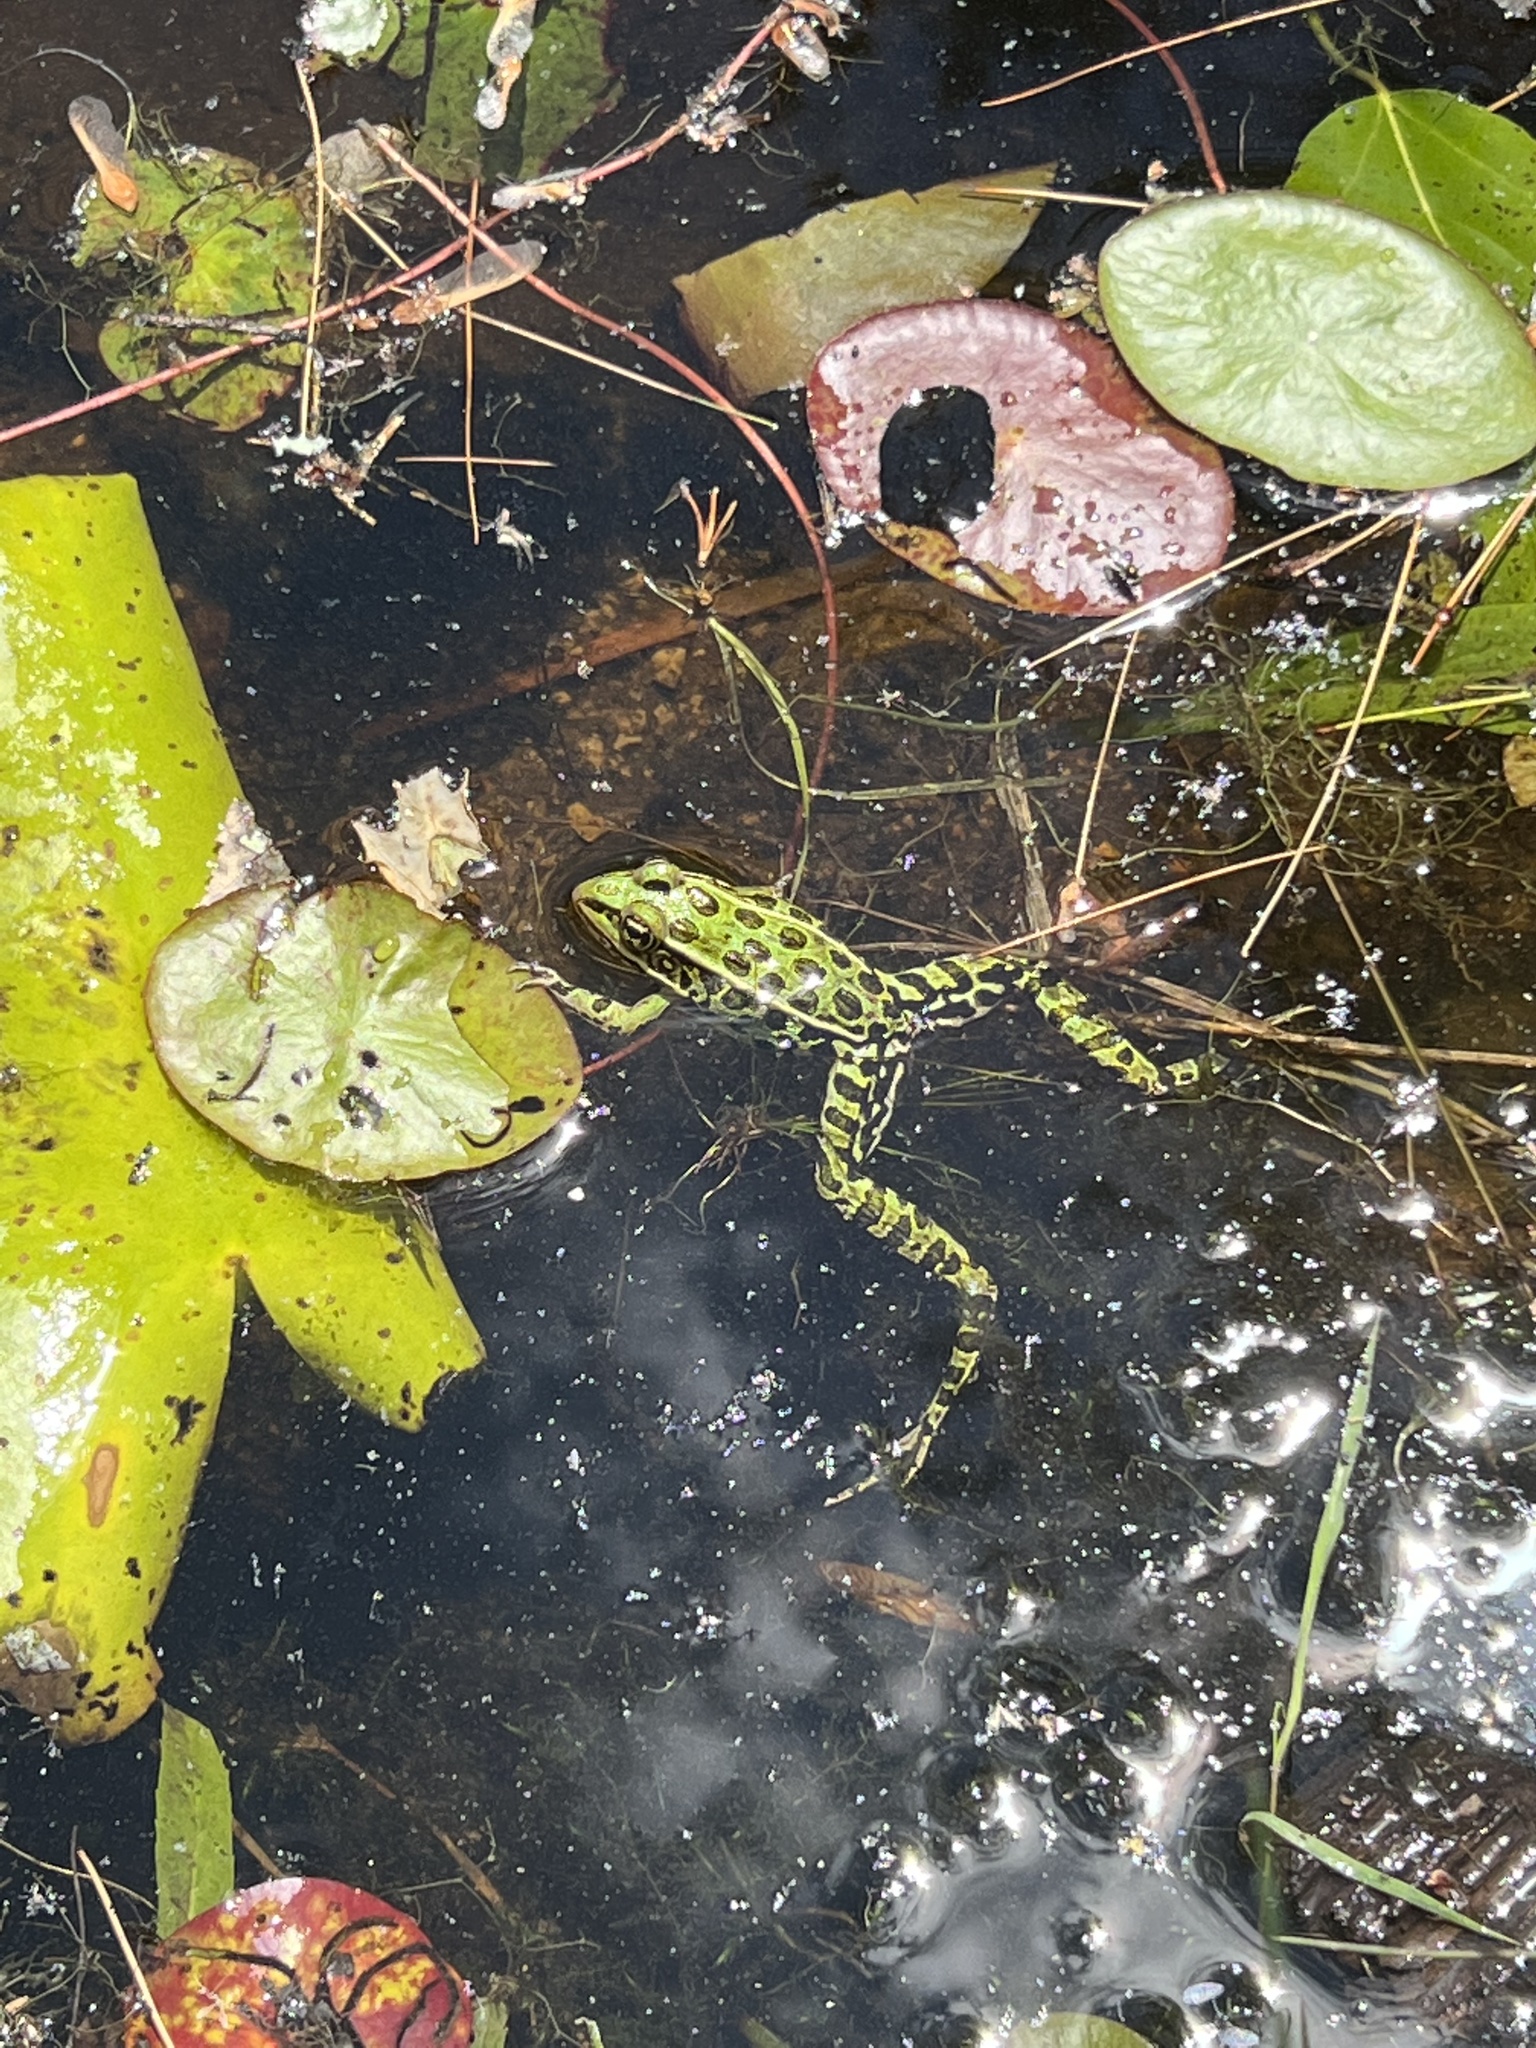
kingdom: Animalia
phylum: Chordata
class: Amphibia
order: Anura
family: Ranidae
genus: Lithobates
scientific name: Lithobates pipiens
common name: Northern leopard frog
